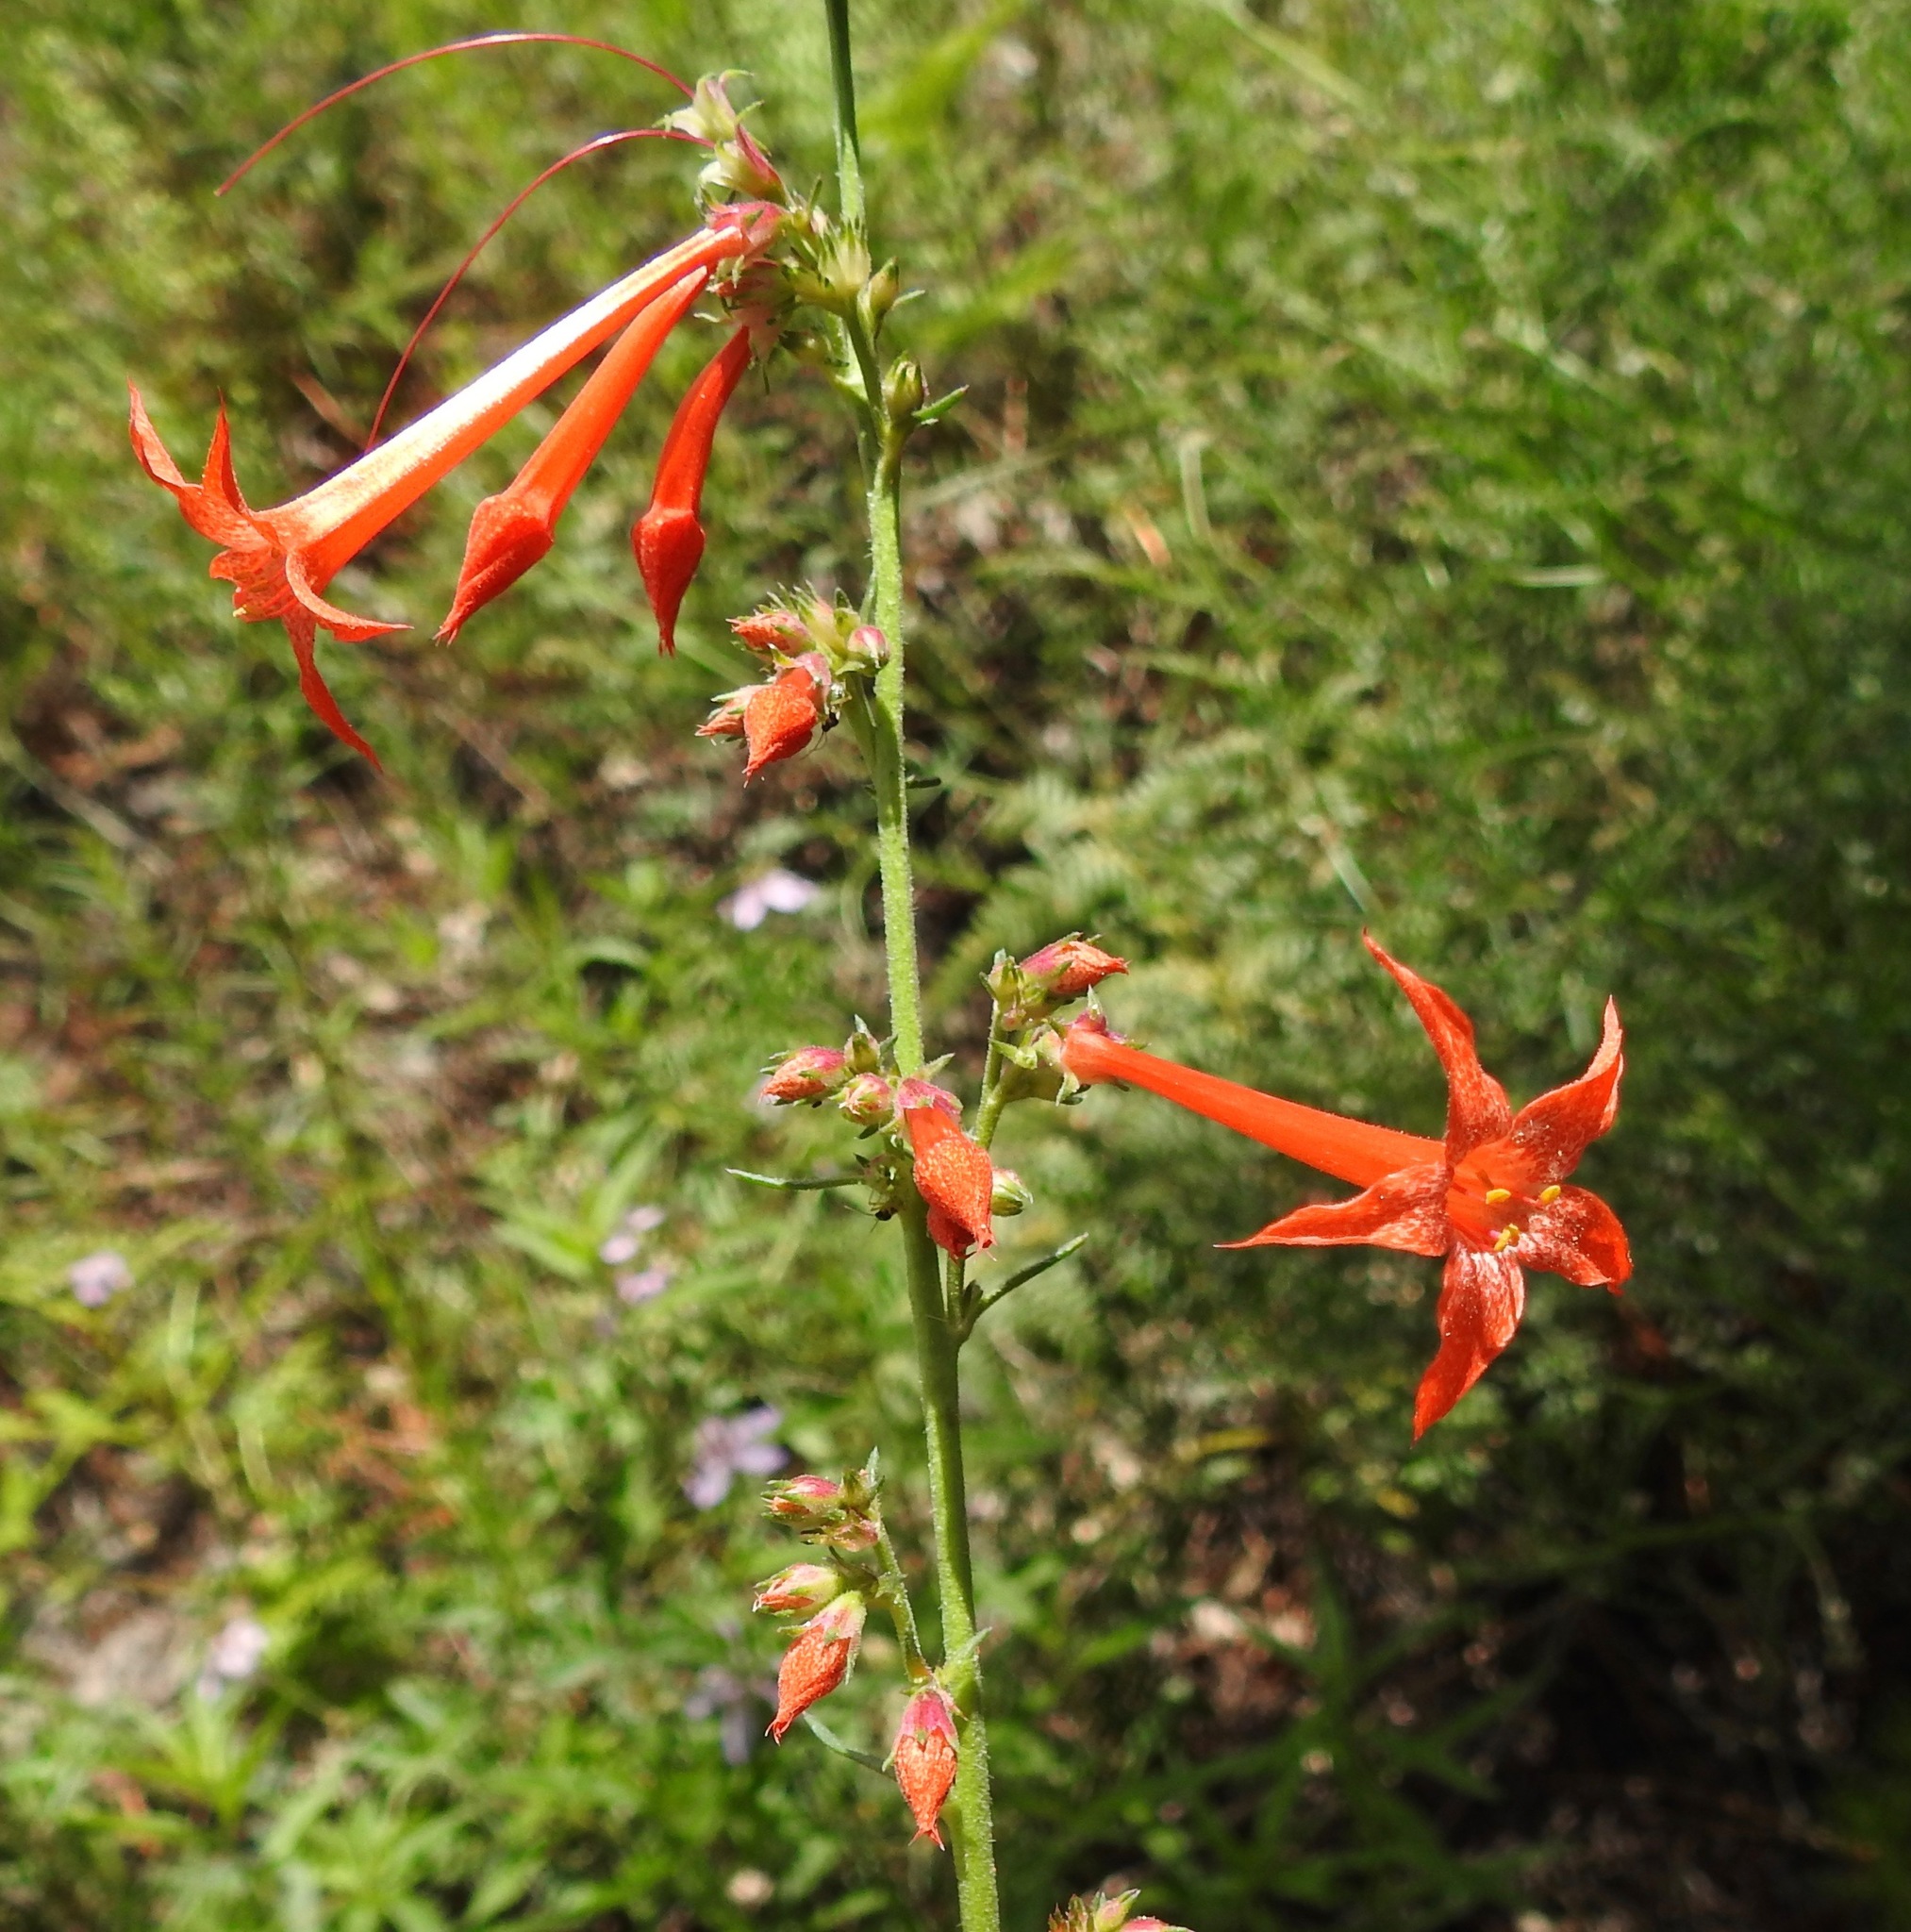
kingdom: Plantae
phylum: Tracheophyta
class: Magnoliopsida
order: Ericales
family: Polemoniaceae
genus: Ipomopsis
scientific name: Ipomopsis aggregata
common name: Scarlet gilia
